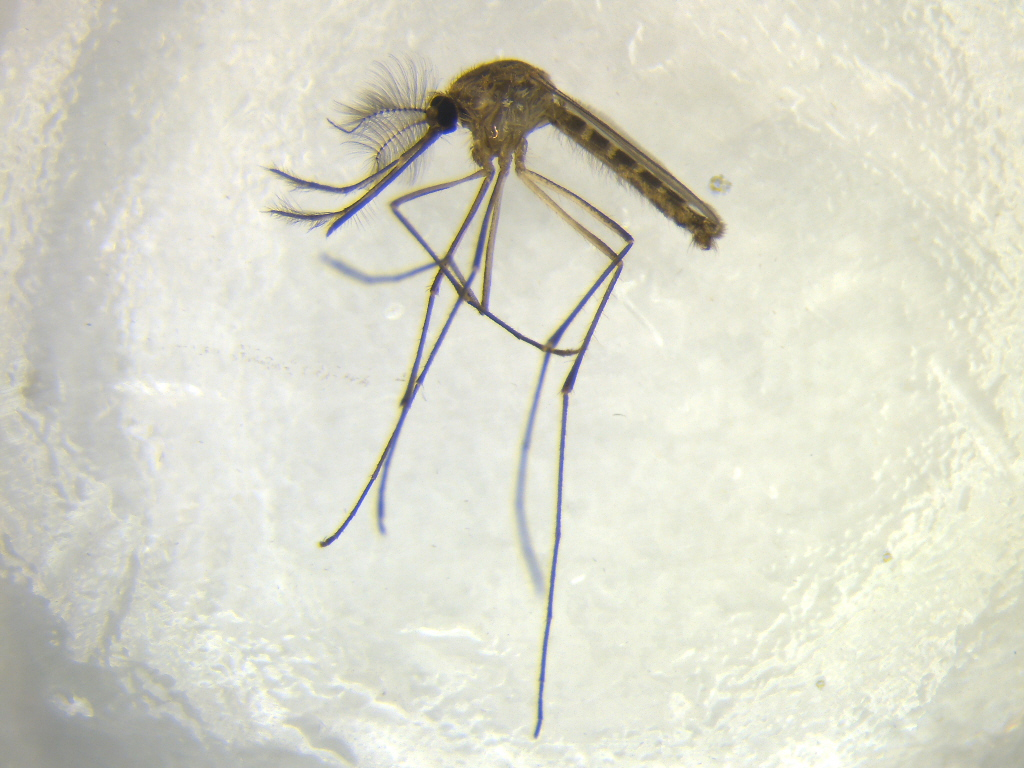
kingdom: Animalia
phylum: Arthropoda
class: Insecta
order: Diptera
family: Culicidae
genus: Culex
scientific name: Culex quinquefasciatus
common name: Southern house mosquito
